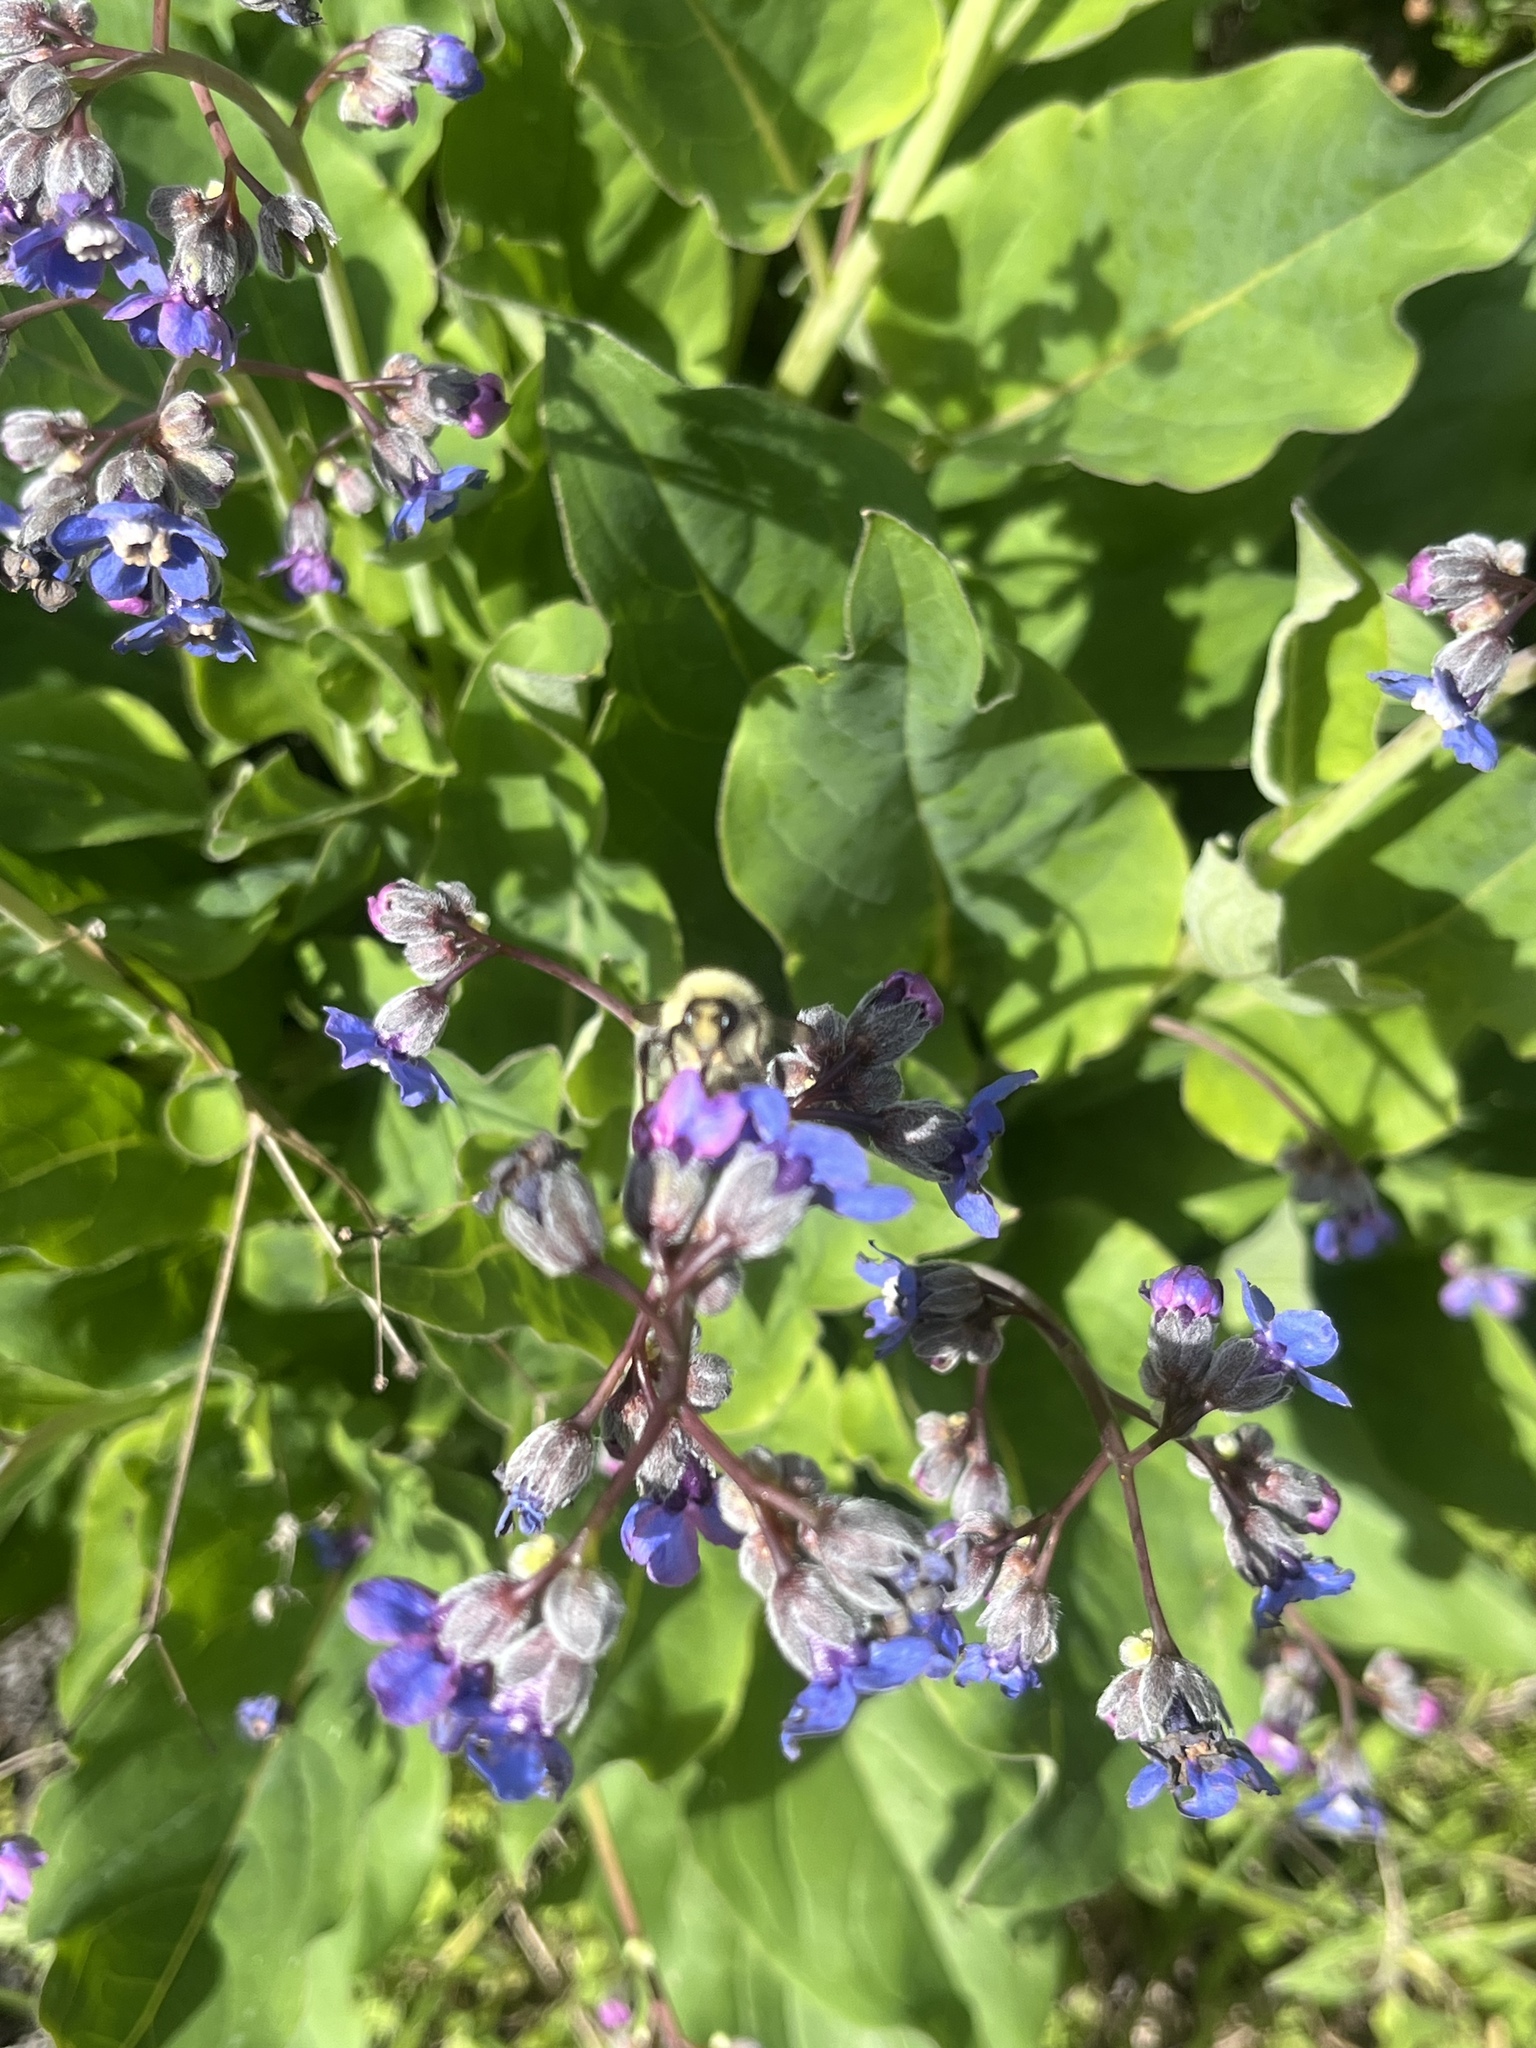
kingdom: Plantae
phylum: Tracheophyta
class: Magnoliopsida
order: Boraginales
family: Boraginaceae
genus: Adelinia
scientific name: Adelinia grande
